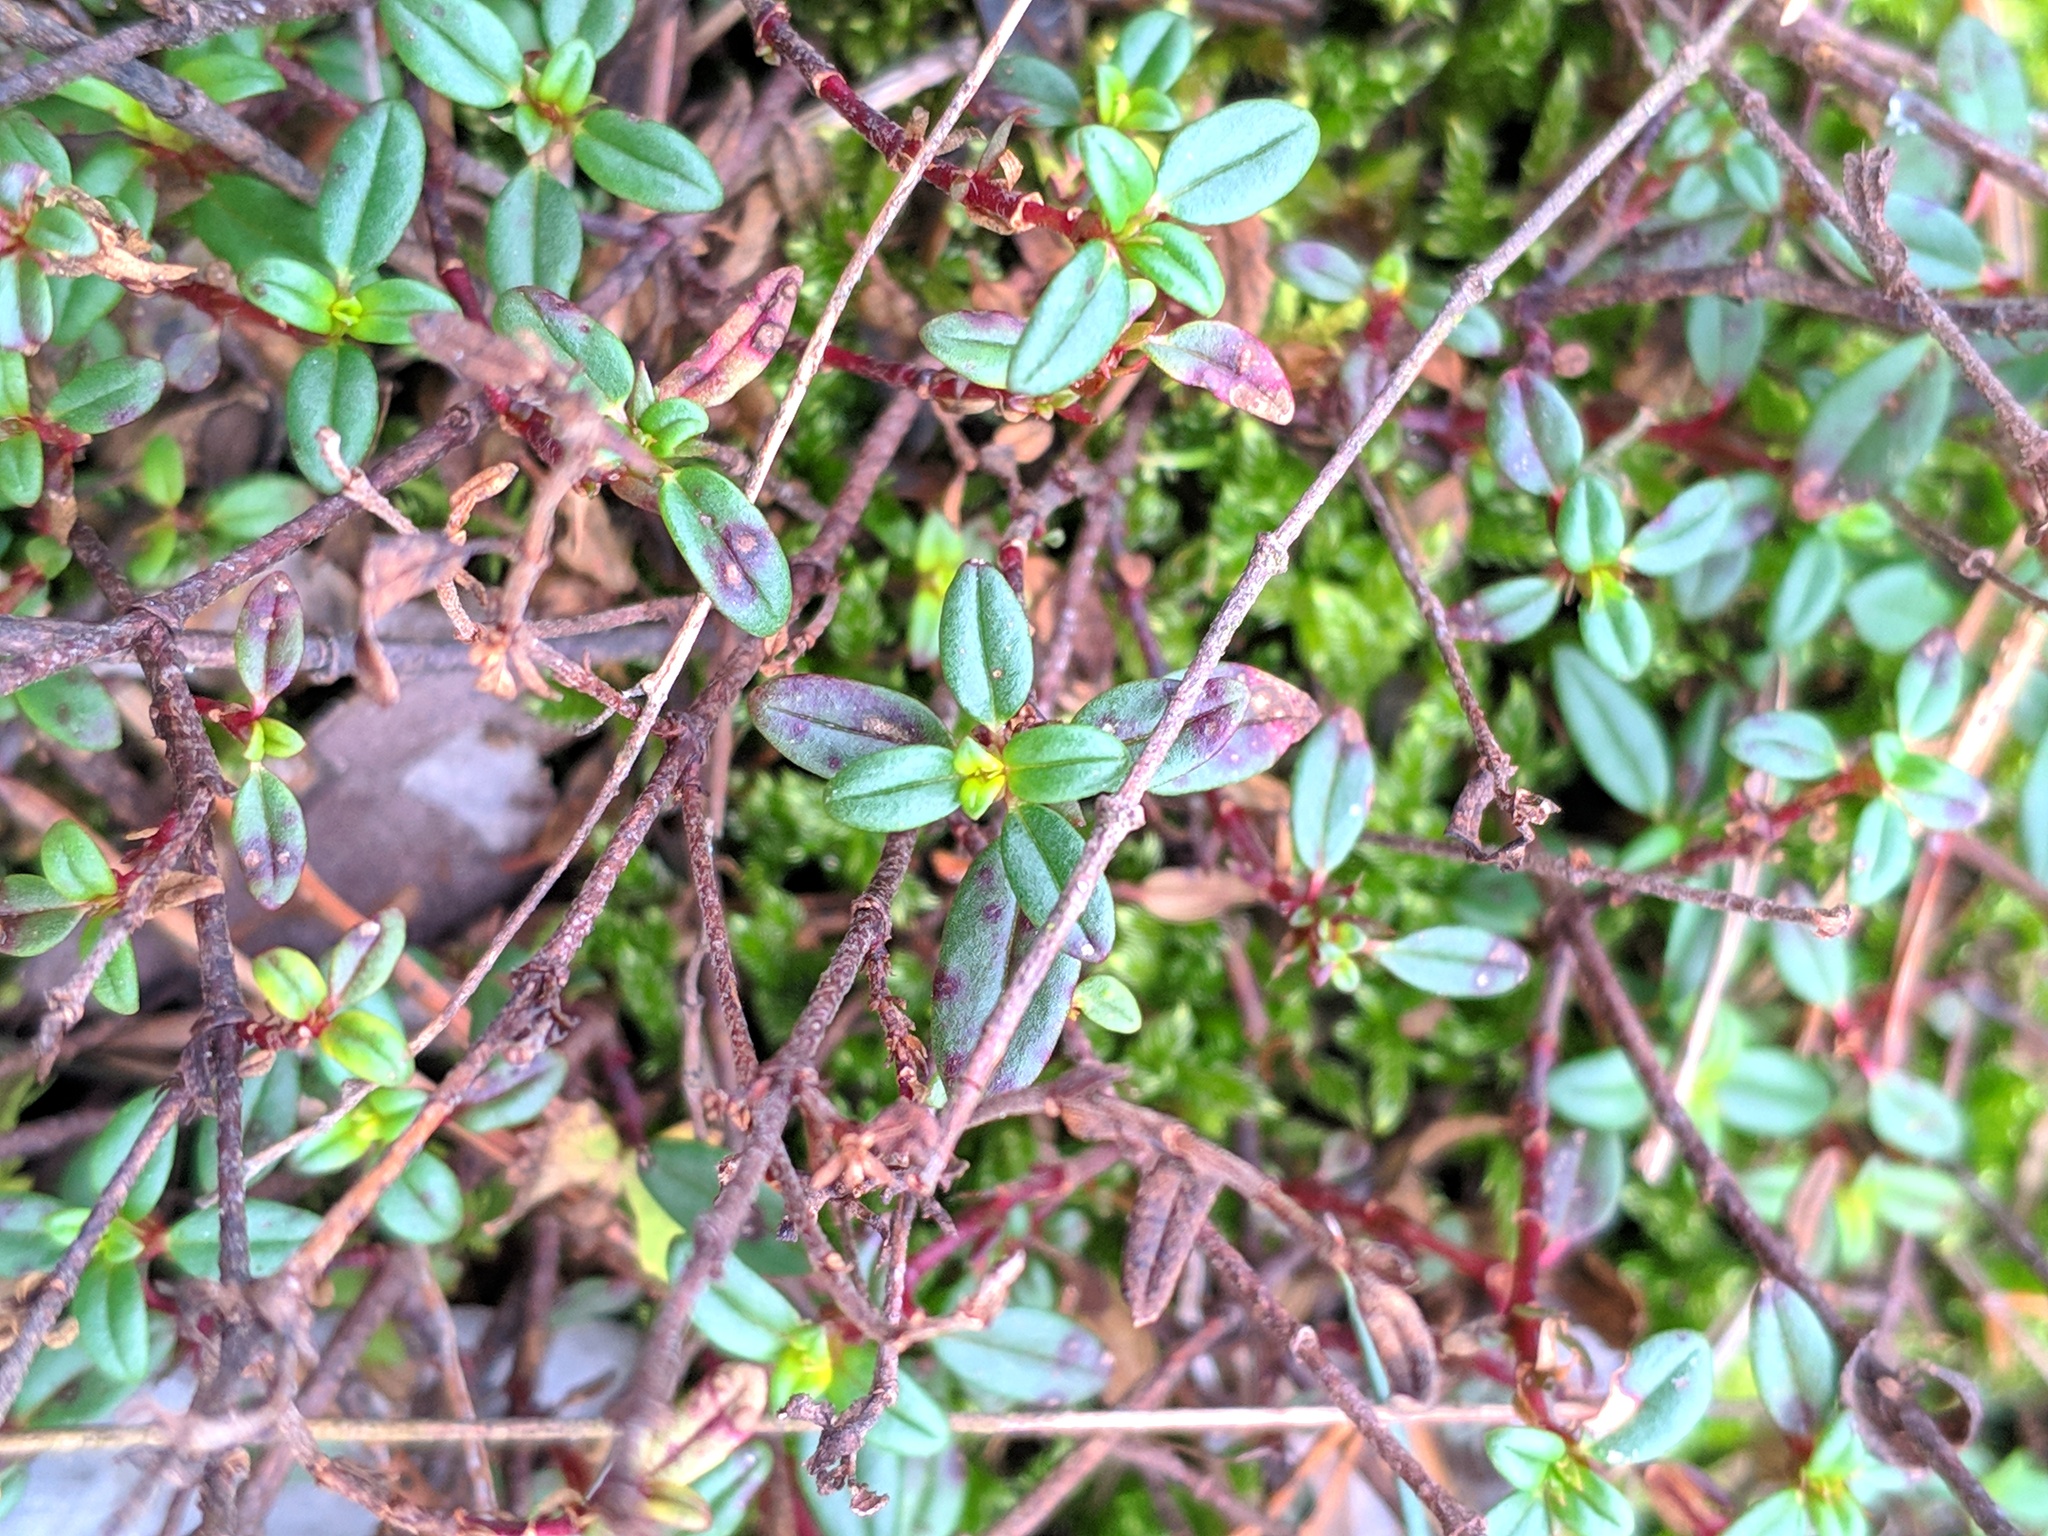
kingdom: Plantae
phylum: Tracheophyta
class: Magnoliopsida
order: Malvales
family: Cistaceae
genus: Helianthemum
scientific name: Helianthemum nummularium
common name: Common rock-rose
